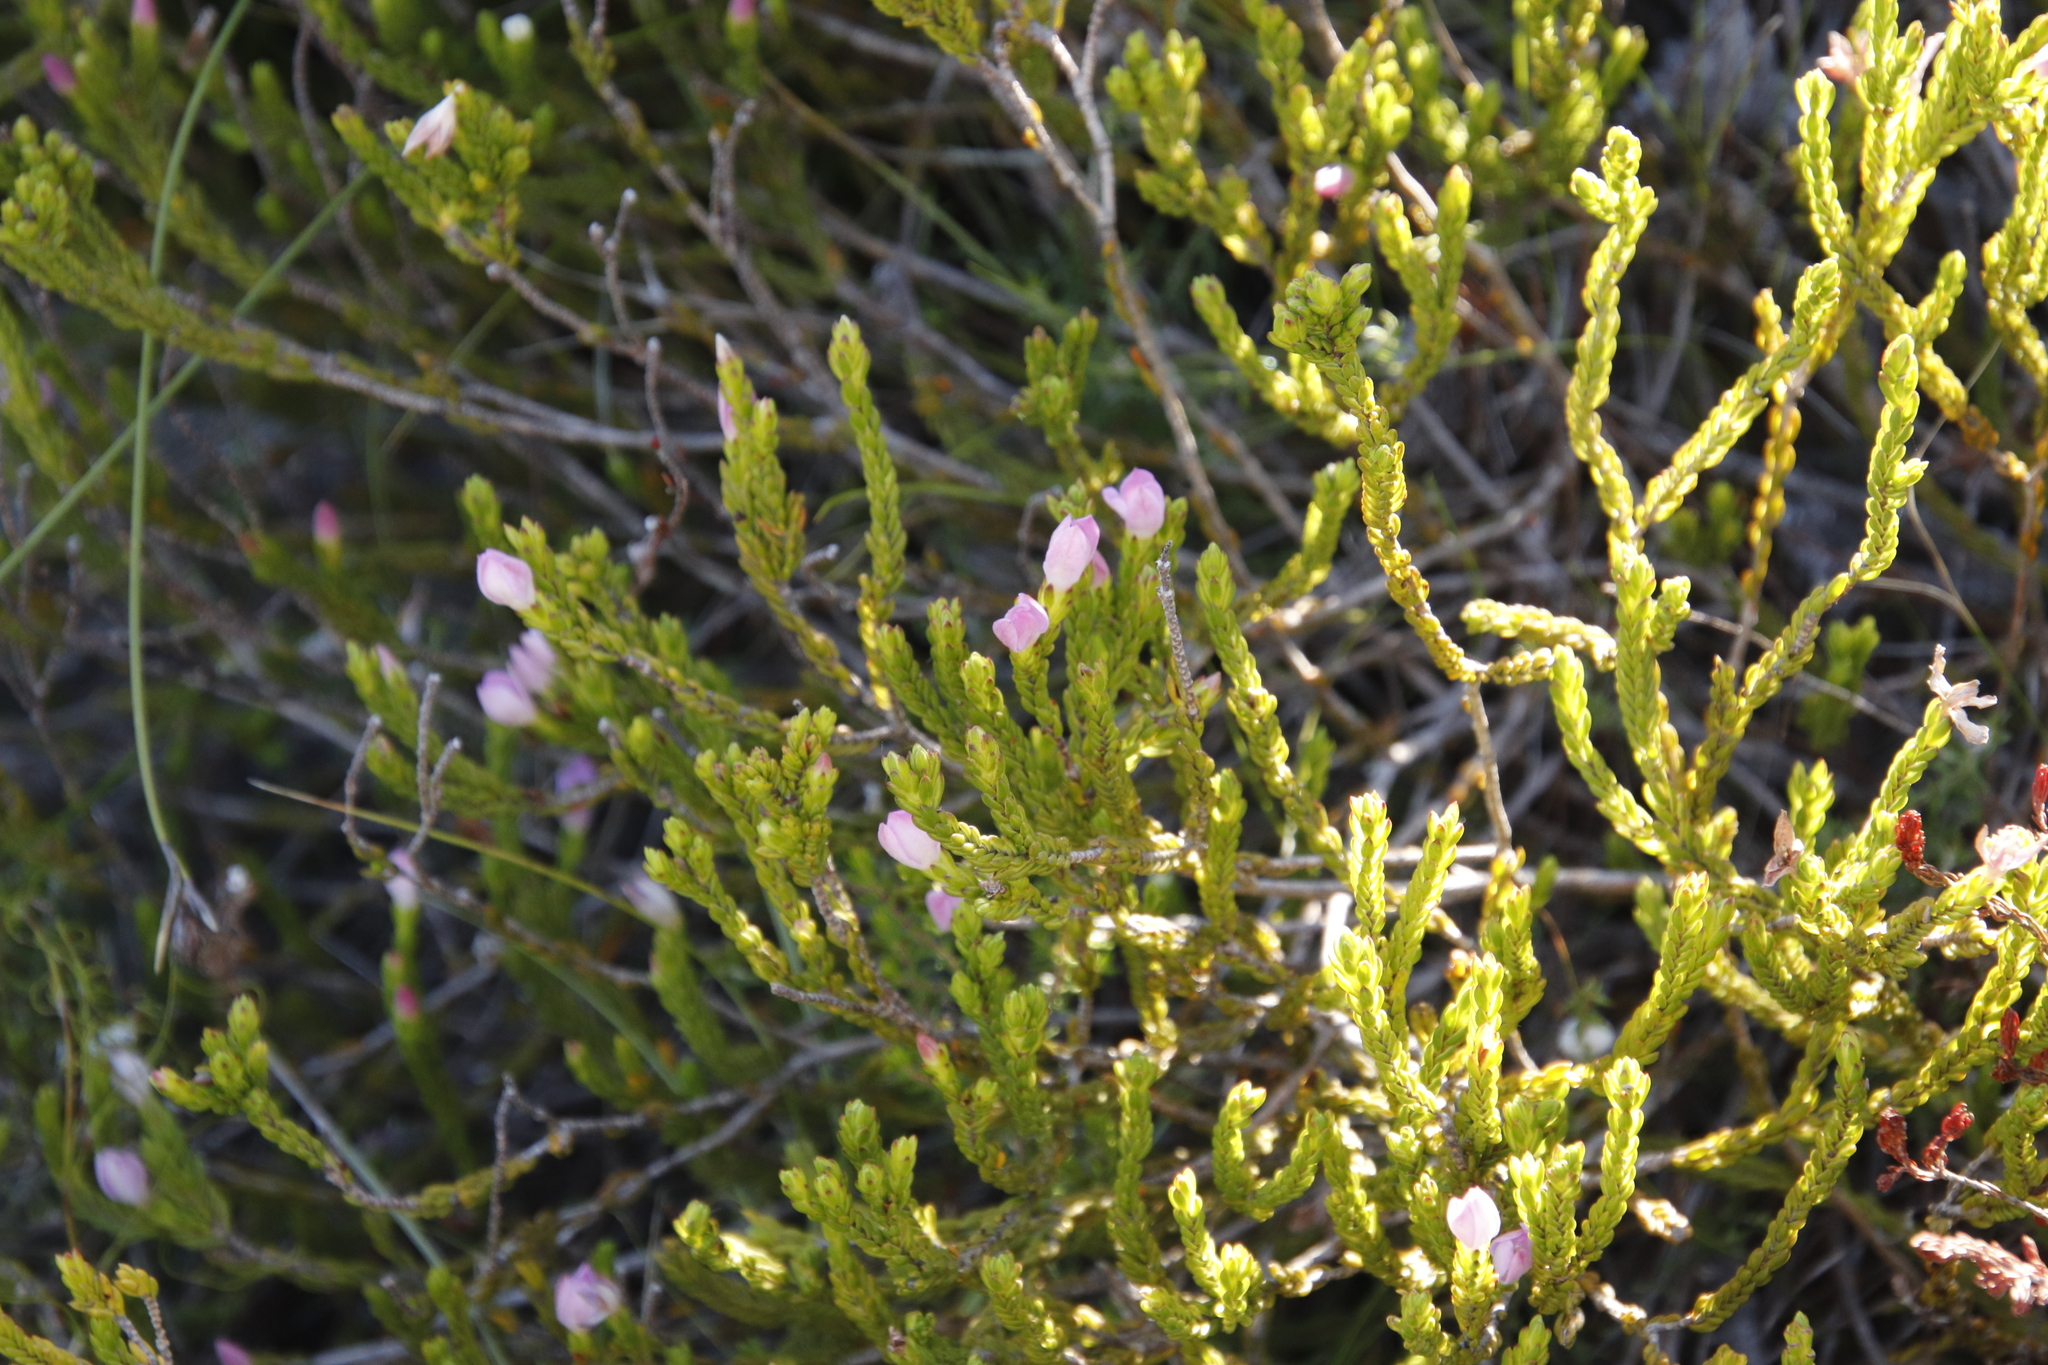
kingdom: Plantae
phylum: Tracheophyta
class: Magnoliopsida
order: Malvales
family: Thymelaeaceae
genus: Lachnaea
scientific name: Lachnaea grandiflora
